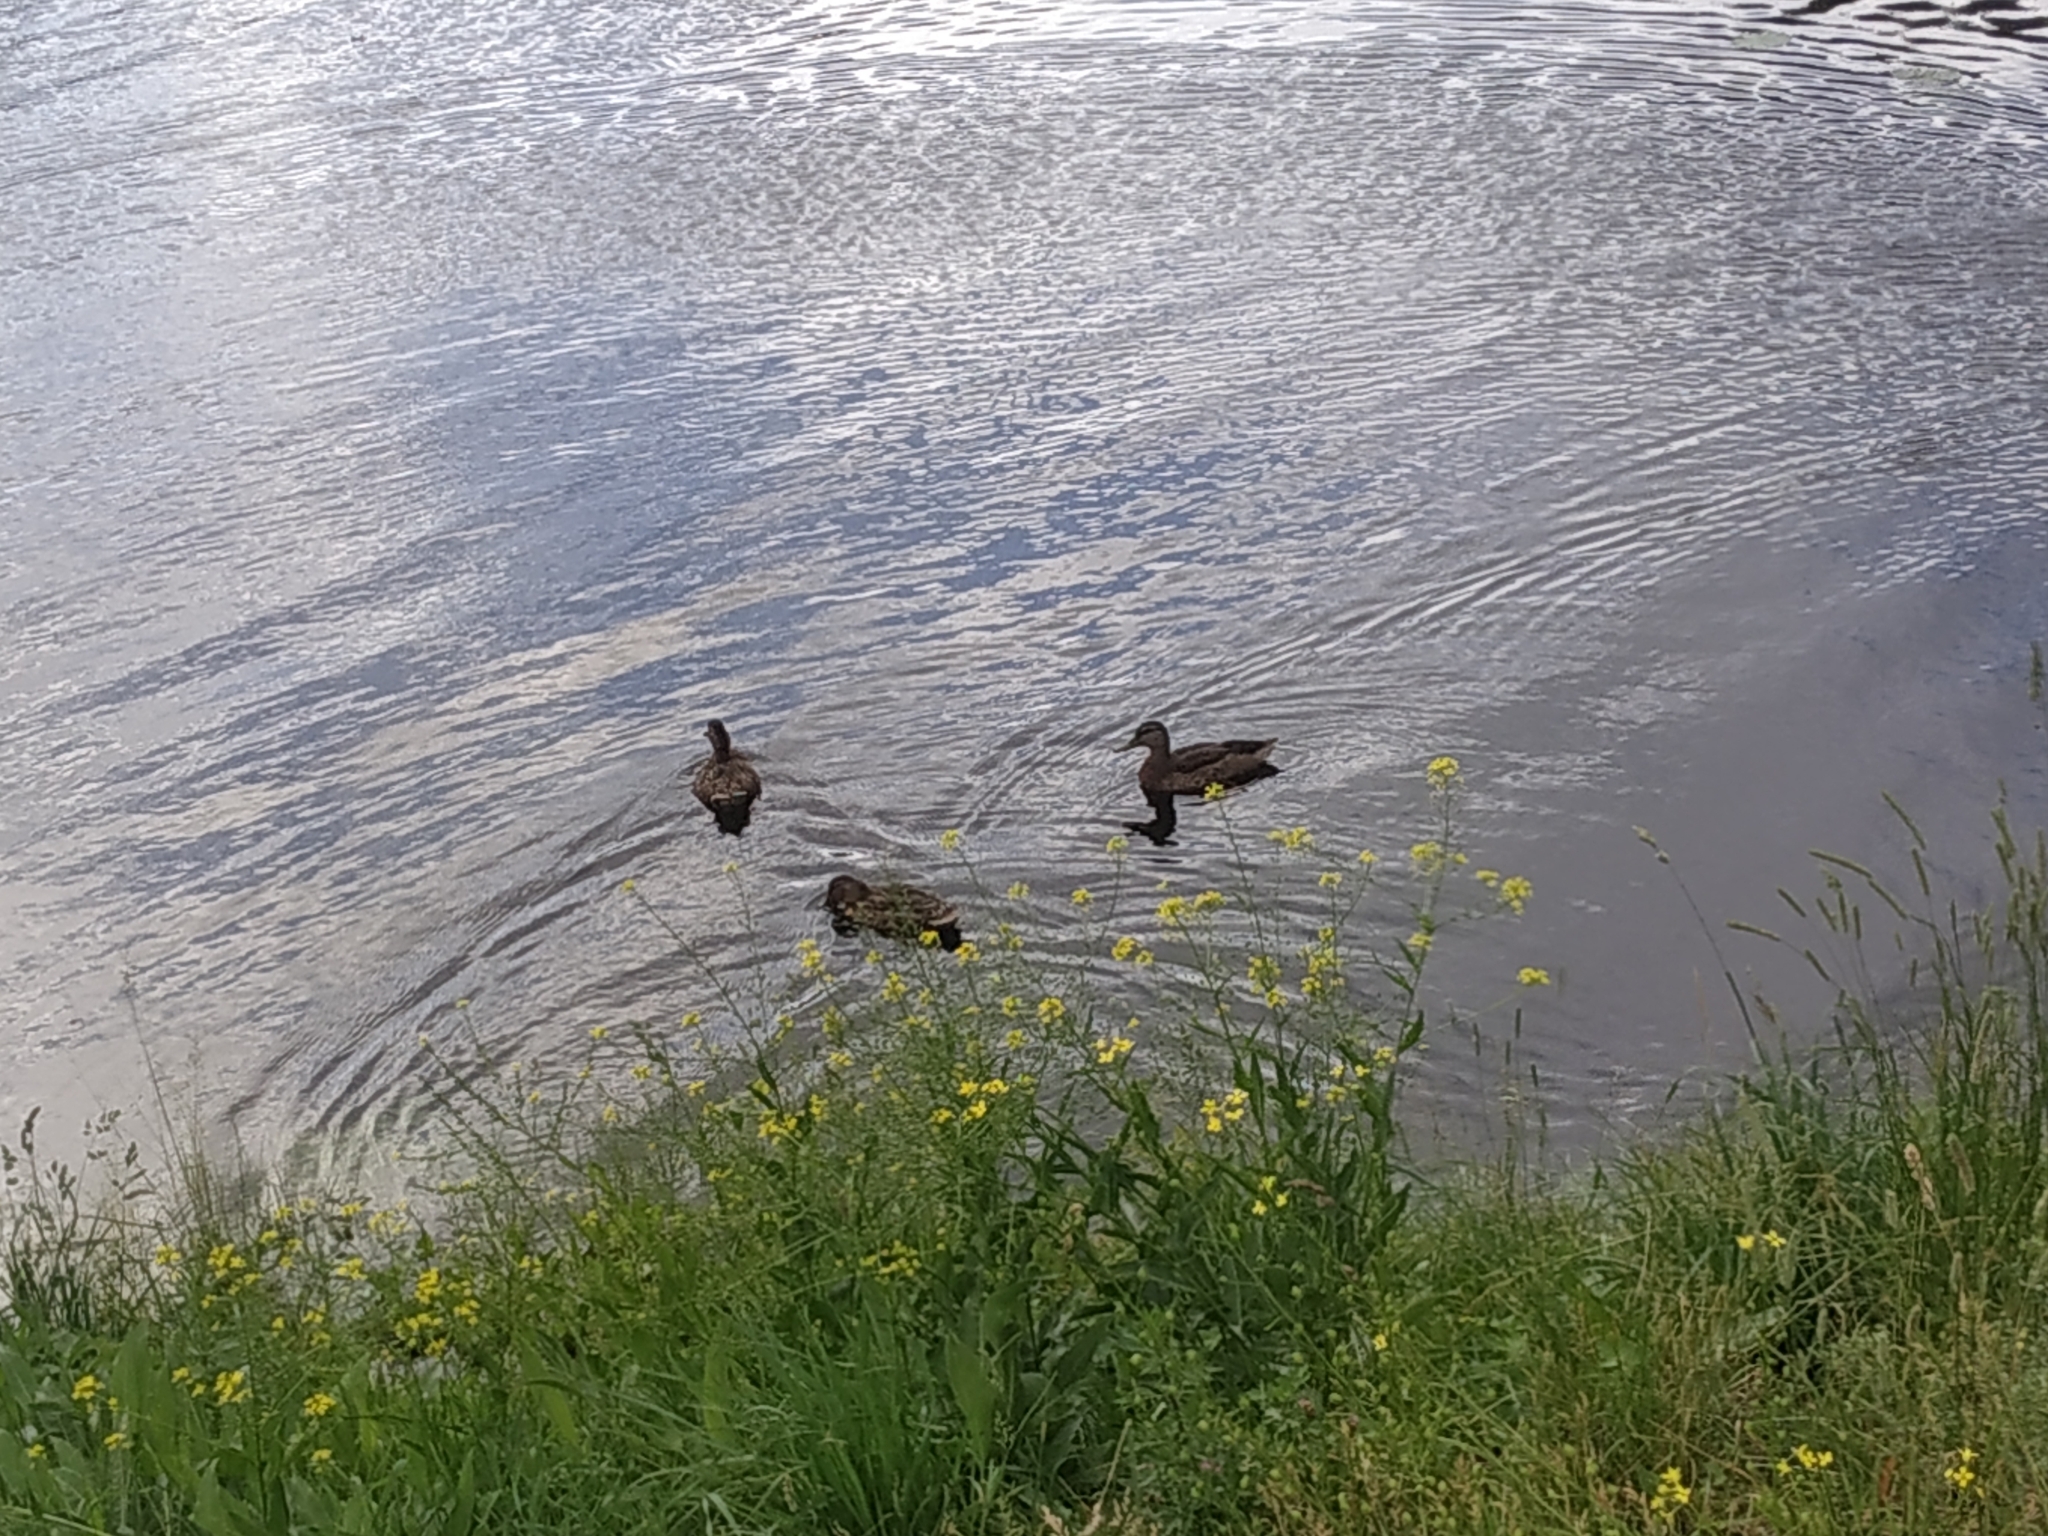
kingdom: Animalia
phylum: Chordata
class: Aves
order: Anseriformes
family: Anatidae
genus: Anas
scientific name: Anas platyrhynchos
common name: Mallard
